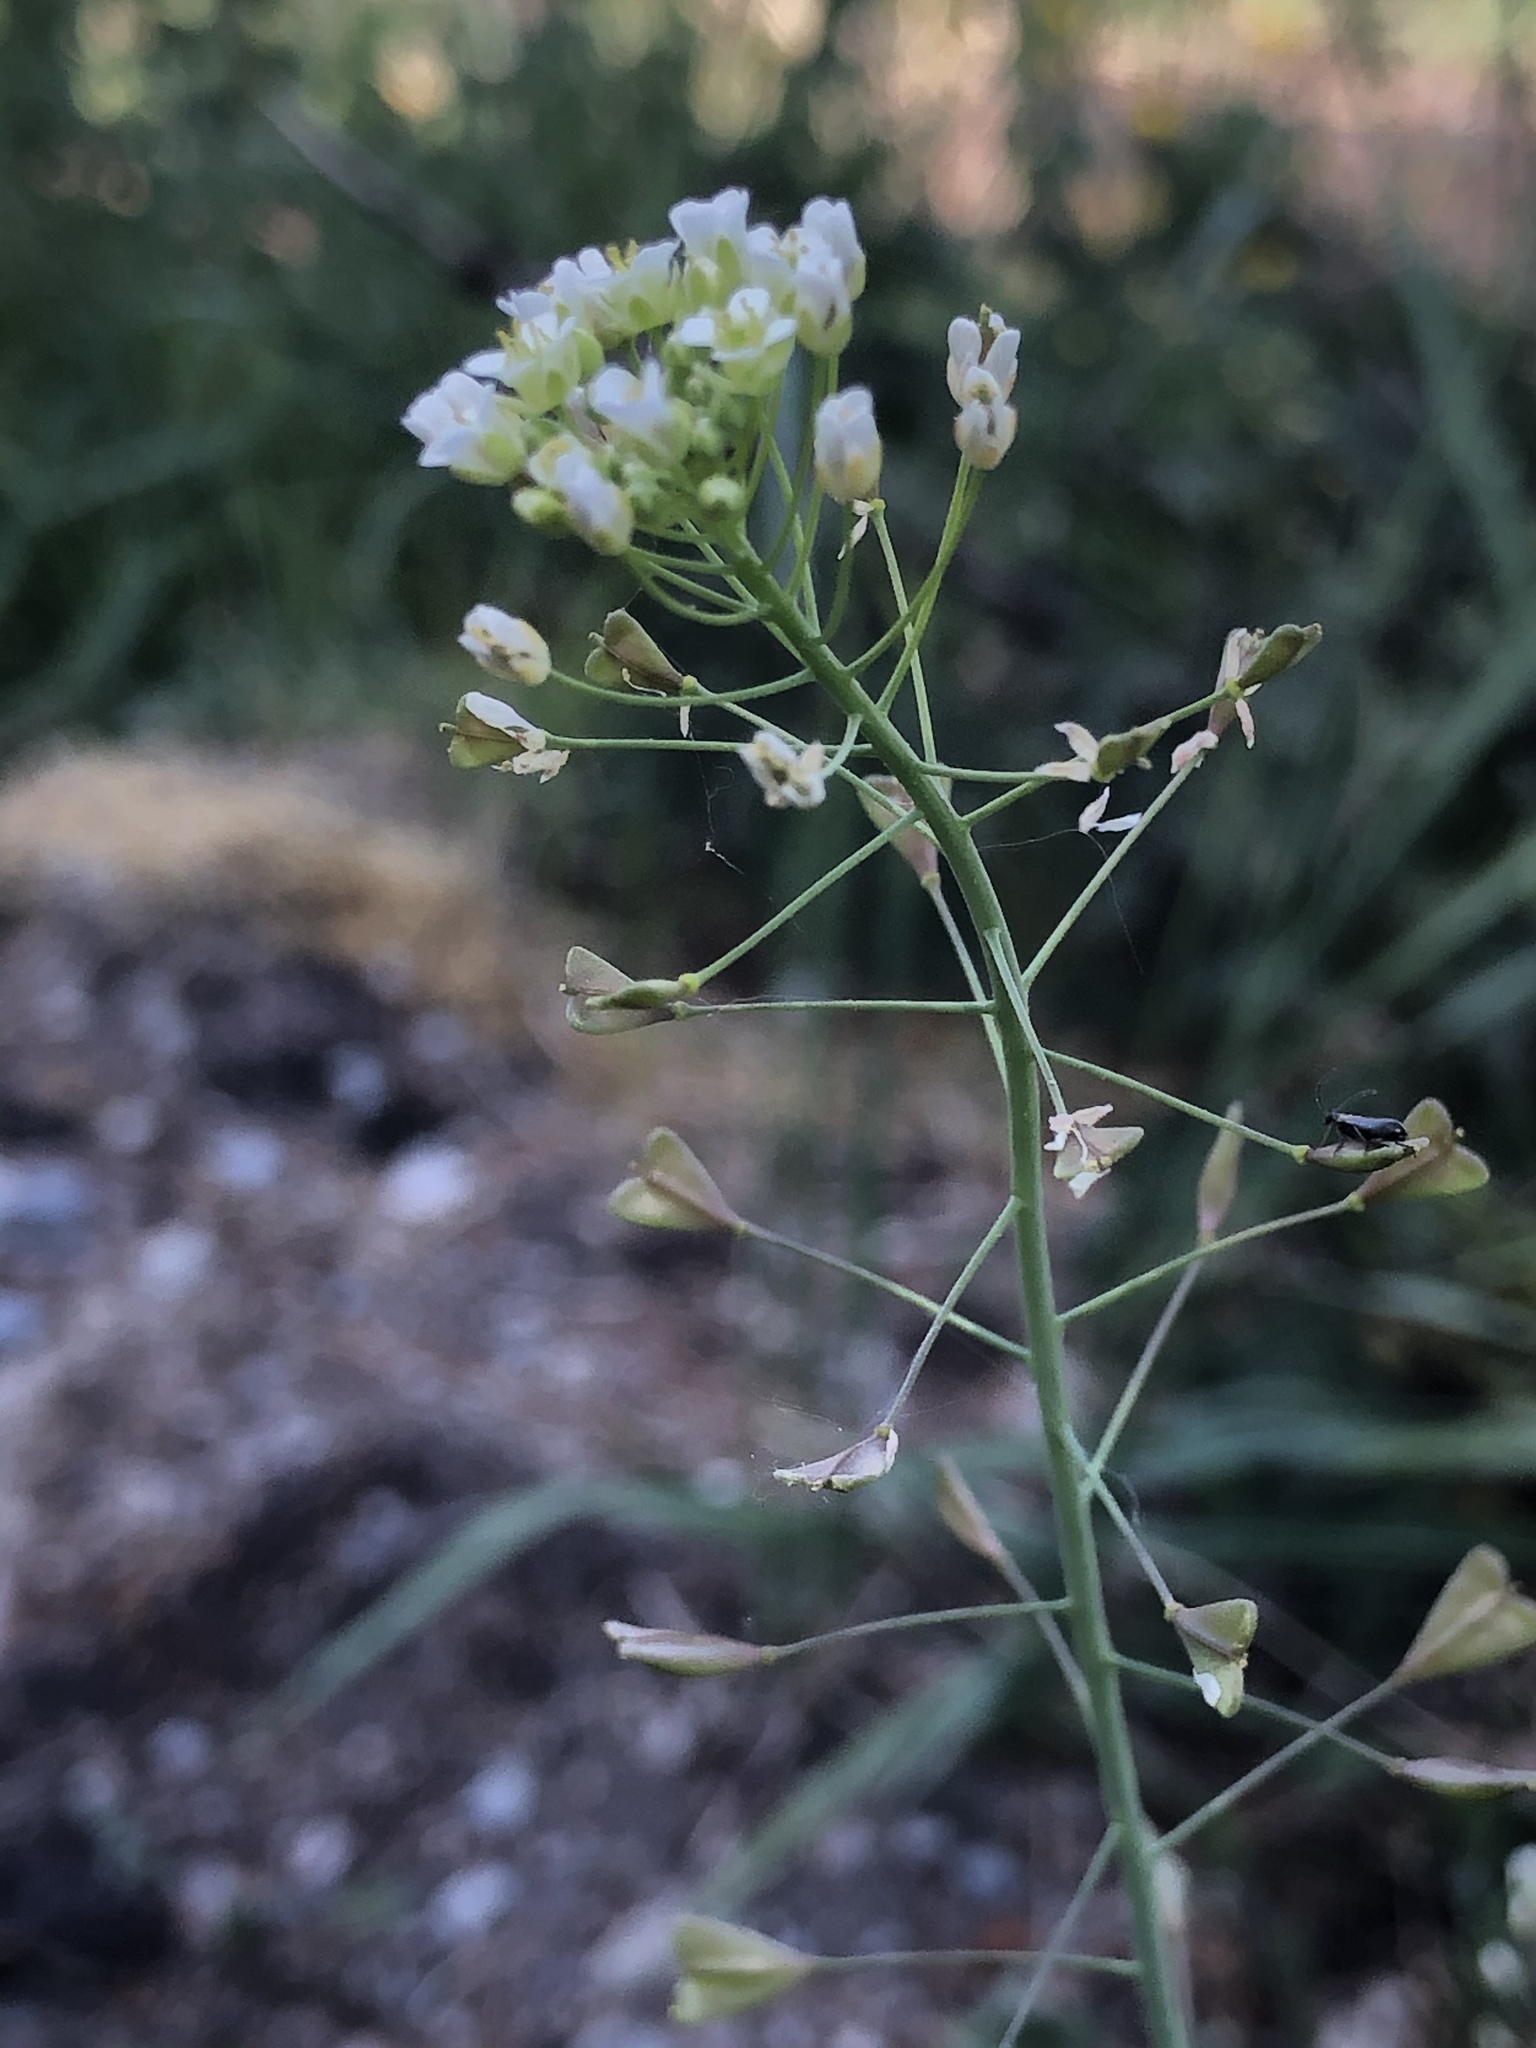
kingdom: Plantae
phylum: Tracheophyta
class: Magnoliopsida
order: Brassicales
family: Brassicaceae
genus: Capsella
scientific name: Capsella bursa-pastoris
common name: Shepherd's purse
